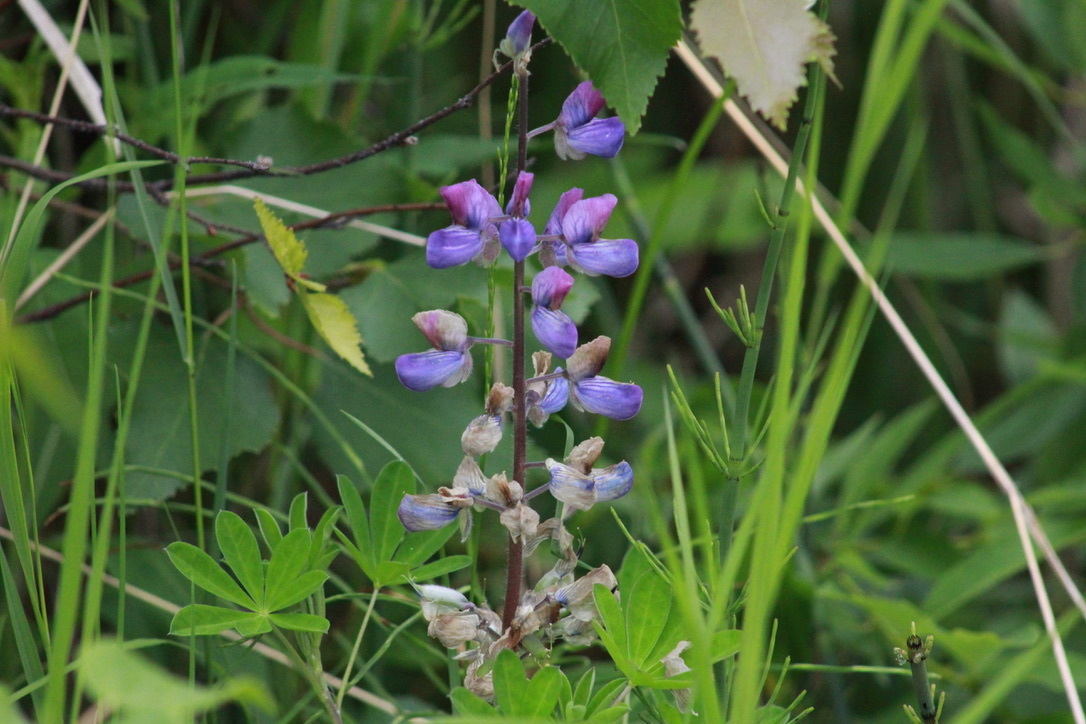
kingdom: Plantae
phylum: Tracheophyta
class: Magnoliopsida
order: Fabales
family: Fabaceae
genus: Lupinus
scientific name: Lupinus nootkatensis
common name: Nootka lupine
